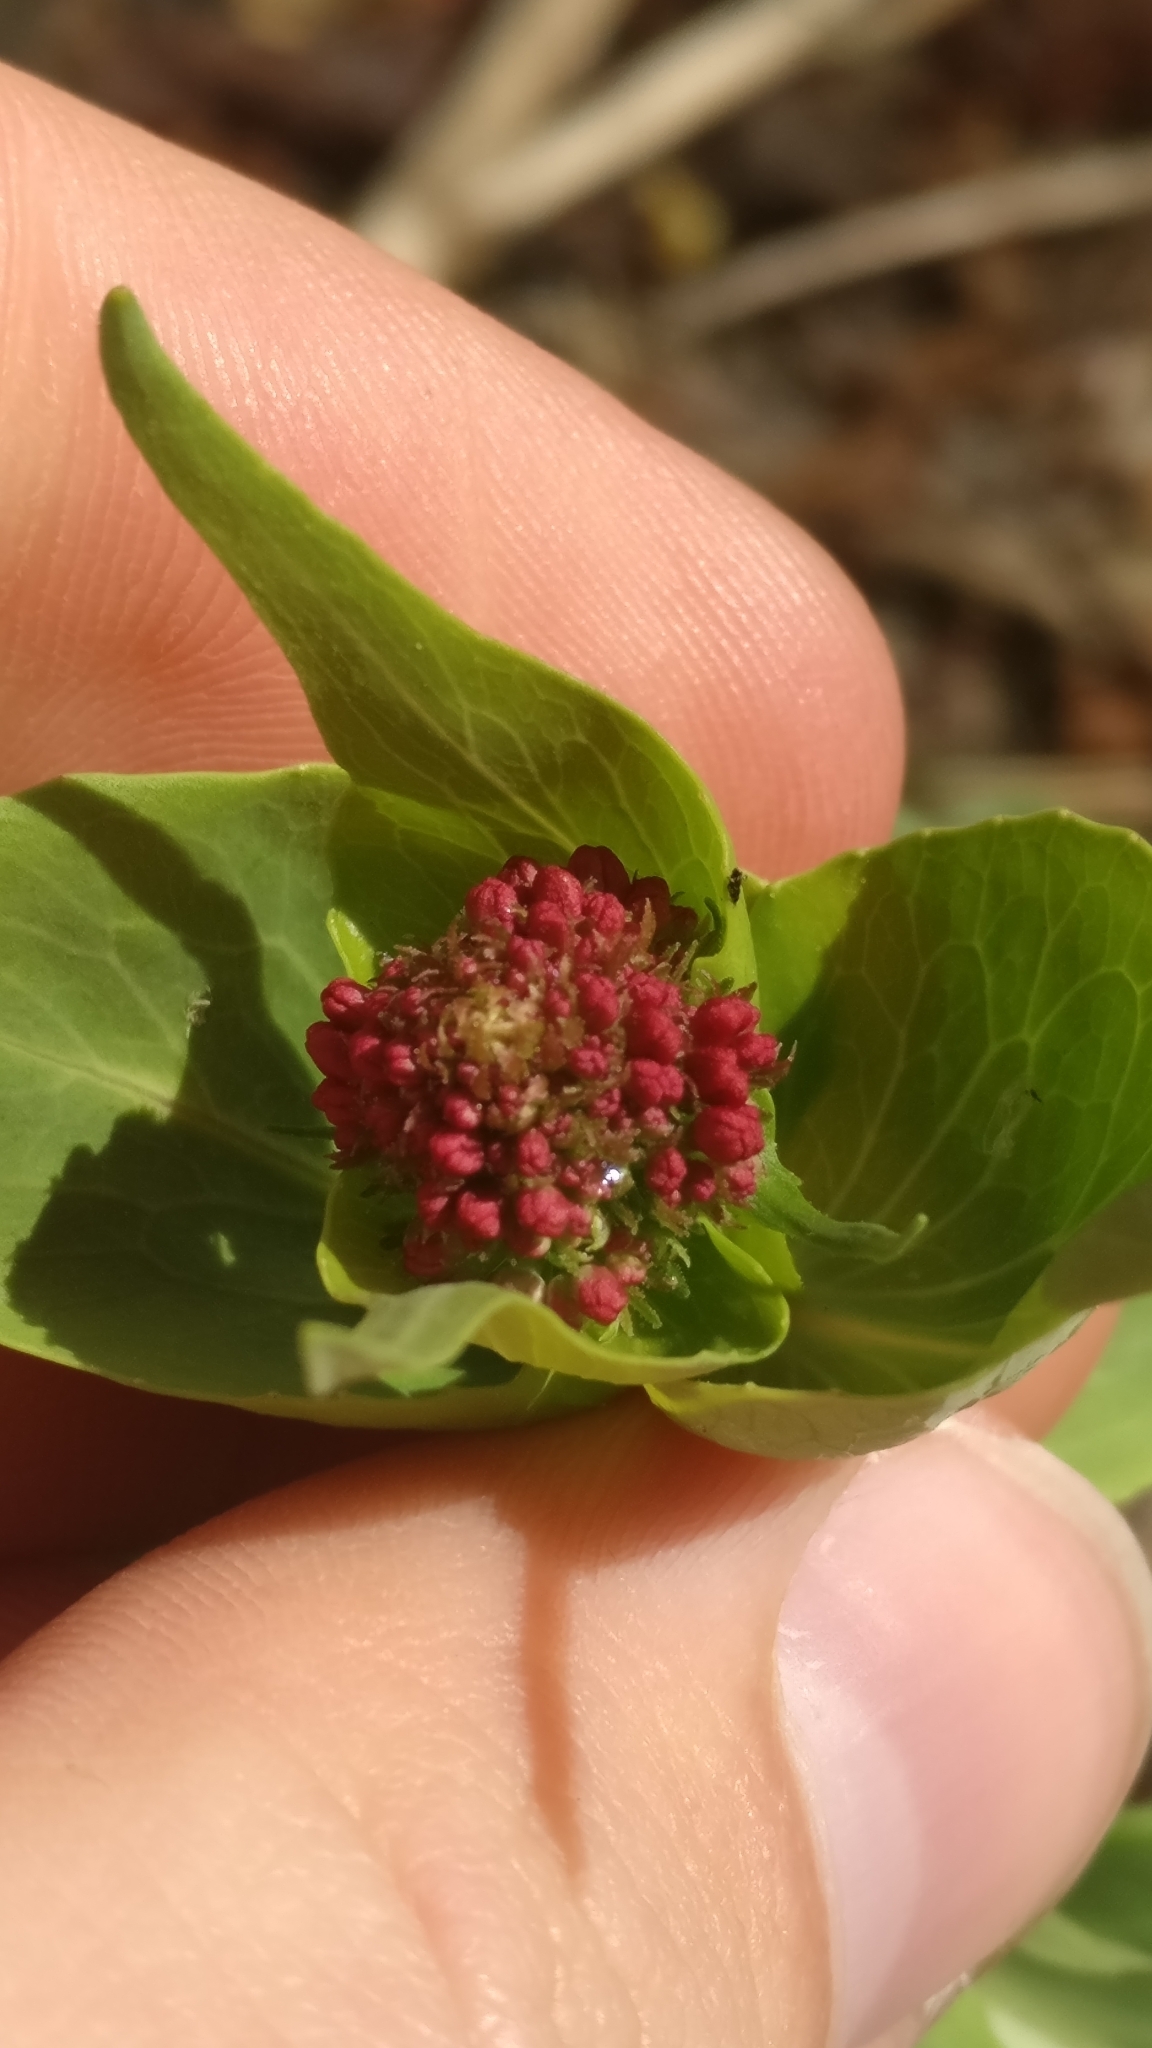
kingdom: Plantae
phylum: Tracheophyta
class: Magnoliopsida
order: Dipsacales
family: Caprifoliaceae
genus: Centranthus
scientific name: Centranthus ruber
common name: Red valerian
